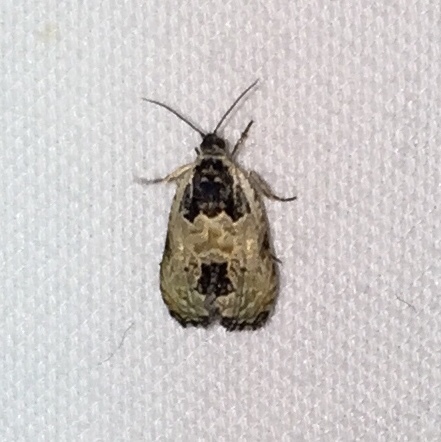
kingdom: Animalia
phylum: Arthropoda
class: Insecta
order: Lepidoptera
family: Tortricidae
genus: Olethreutes
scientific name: Olethreutes griseoalbana
